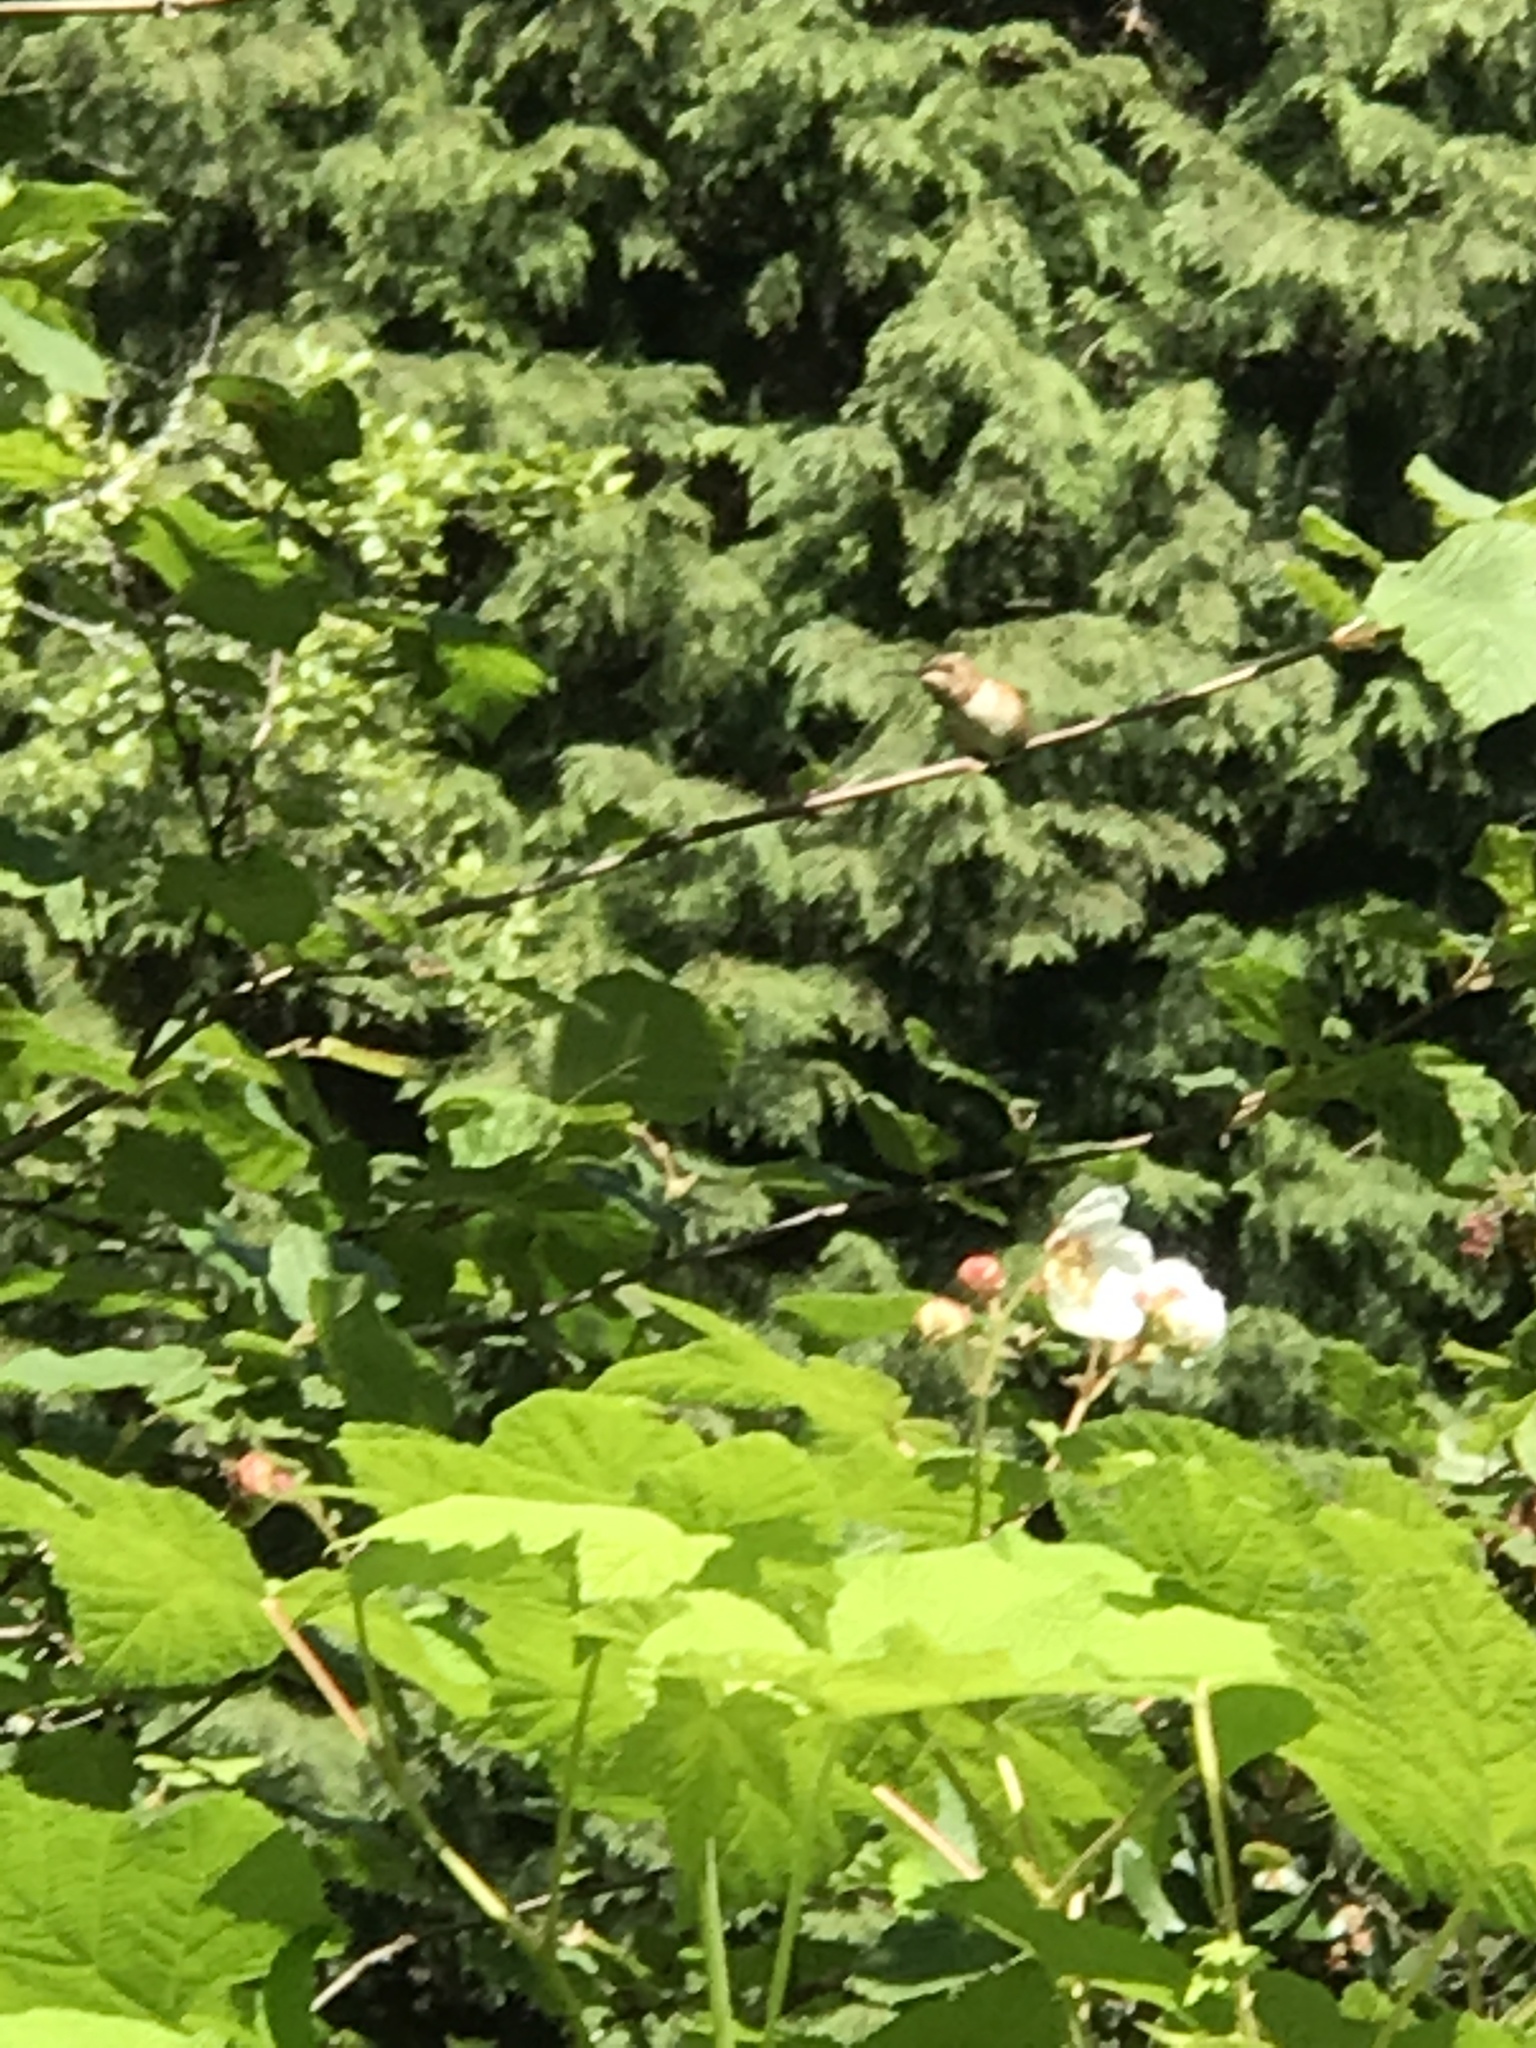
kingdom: Animalia
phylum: Chordata
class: Aves
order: Apodiformes
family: Trochilidae
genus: Selasphorus
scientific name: Selasphorus sasin
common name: Allen's hummingbird
